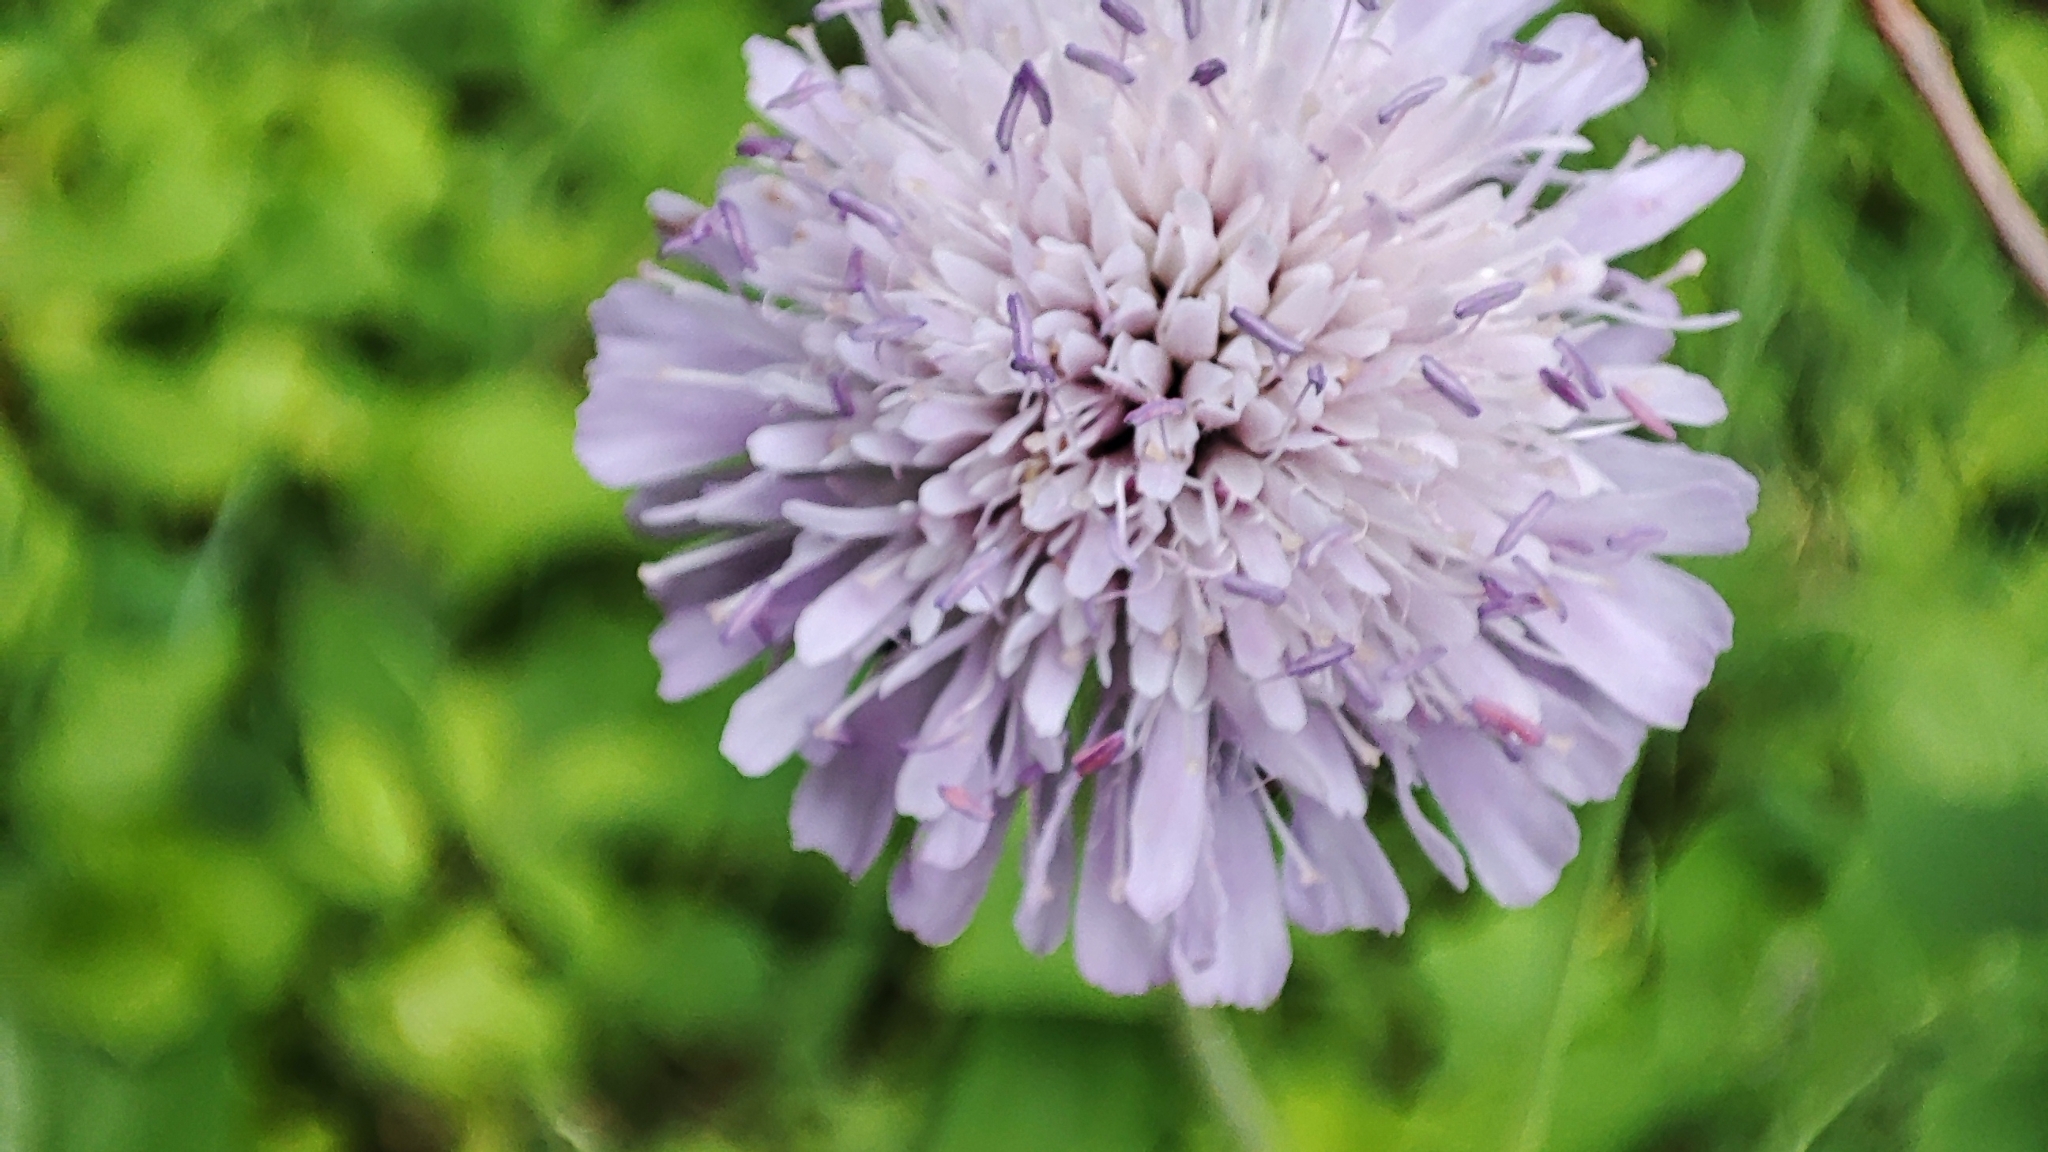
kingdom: Plantae
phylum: Tracheophyta
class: Magnoliopsida
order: Dipsacales
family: Caprifoliaceae
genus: Knautia
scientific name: Knautia arvensis
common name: Field scabiosa
